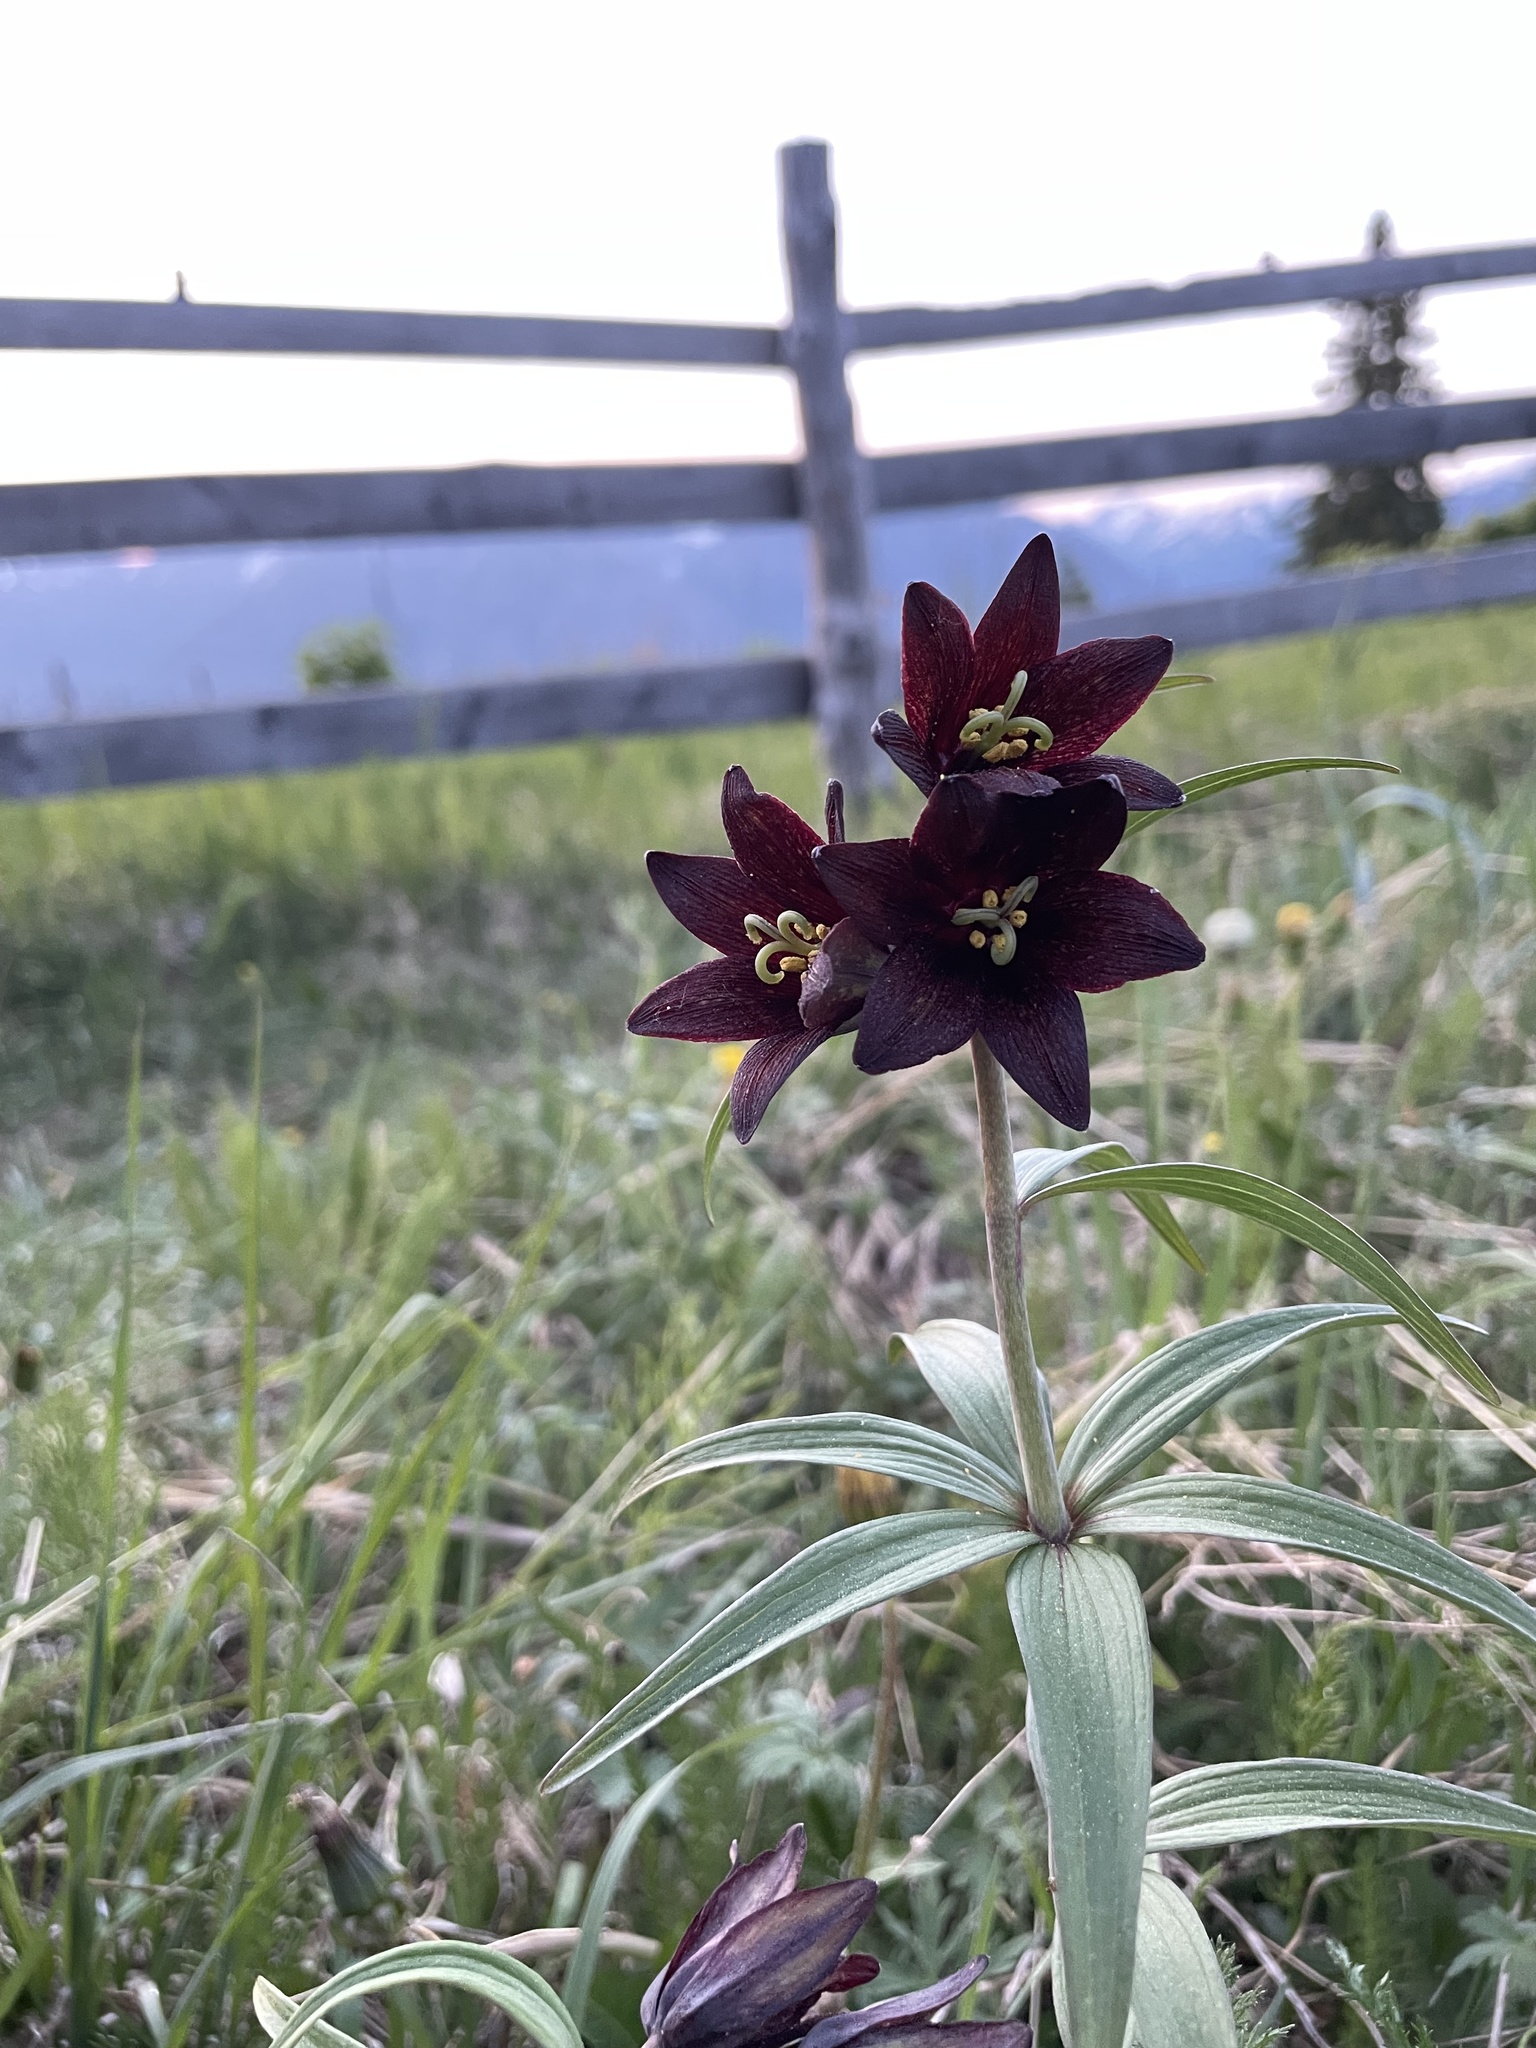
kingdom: Plantae
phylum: Tracheophyta
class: Liliopsida
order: Liliales
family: Liliaceae
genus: Fritillaria
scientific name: Fritillaria camschatcensis
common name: Kamchatka fritillary
